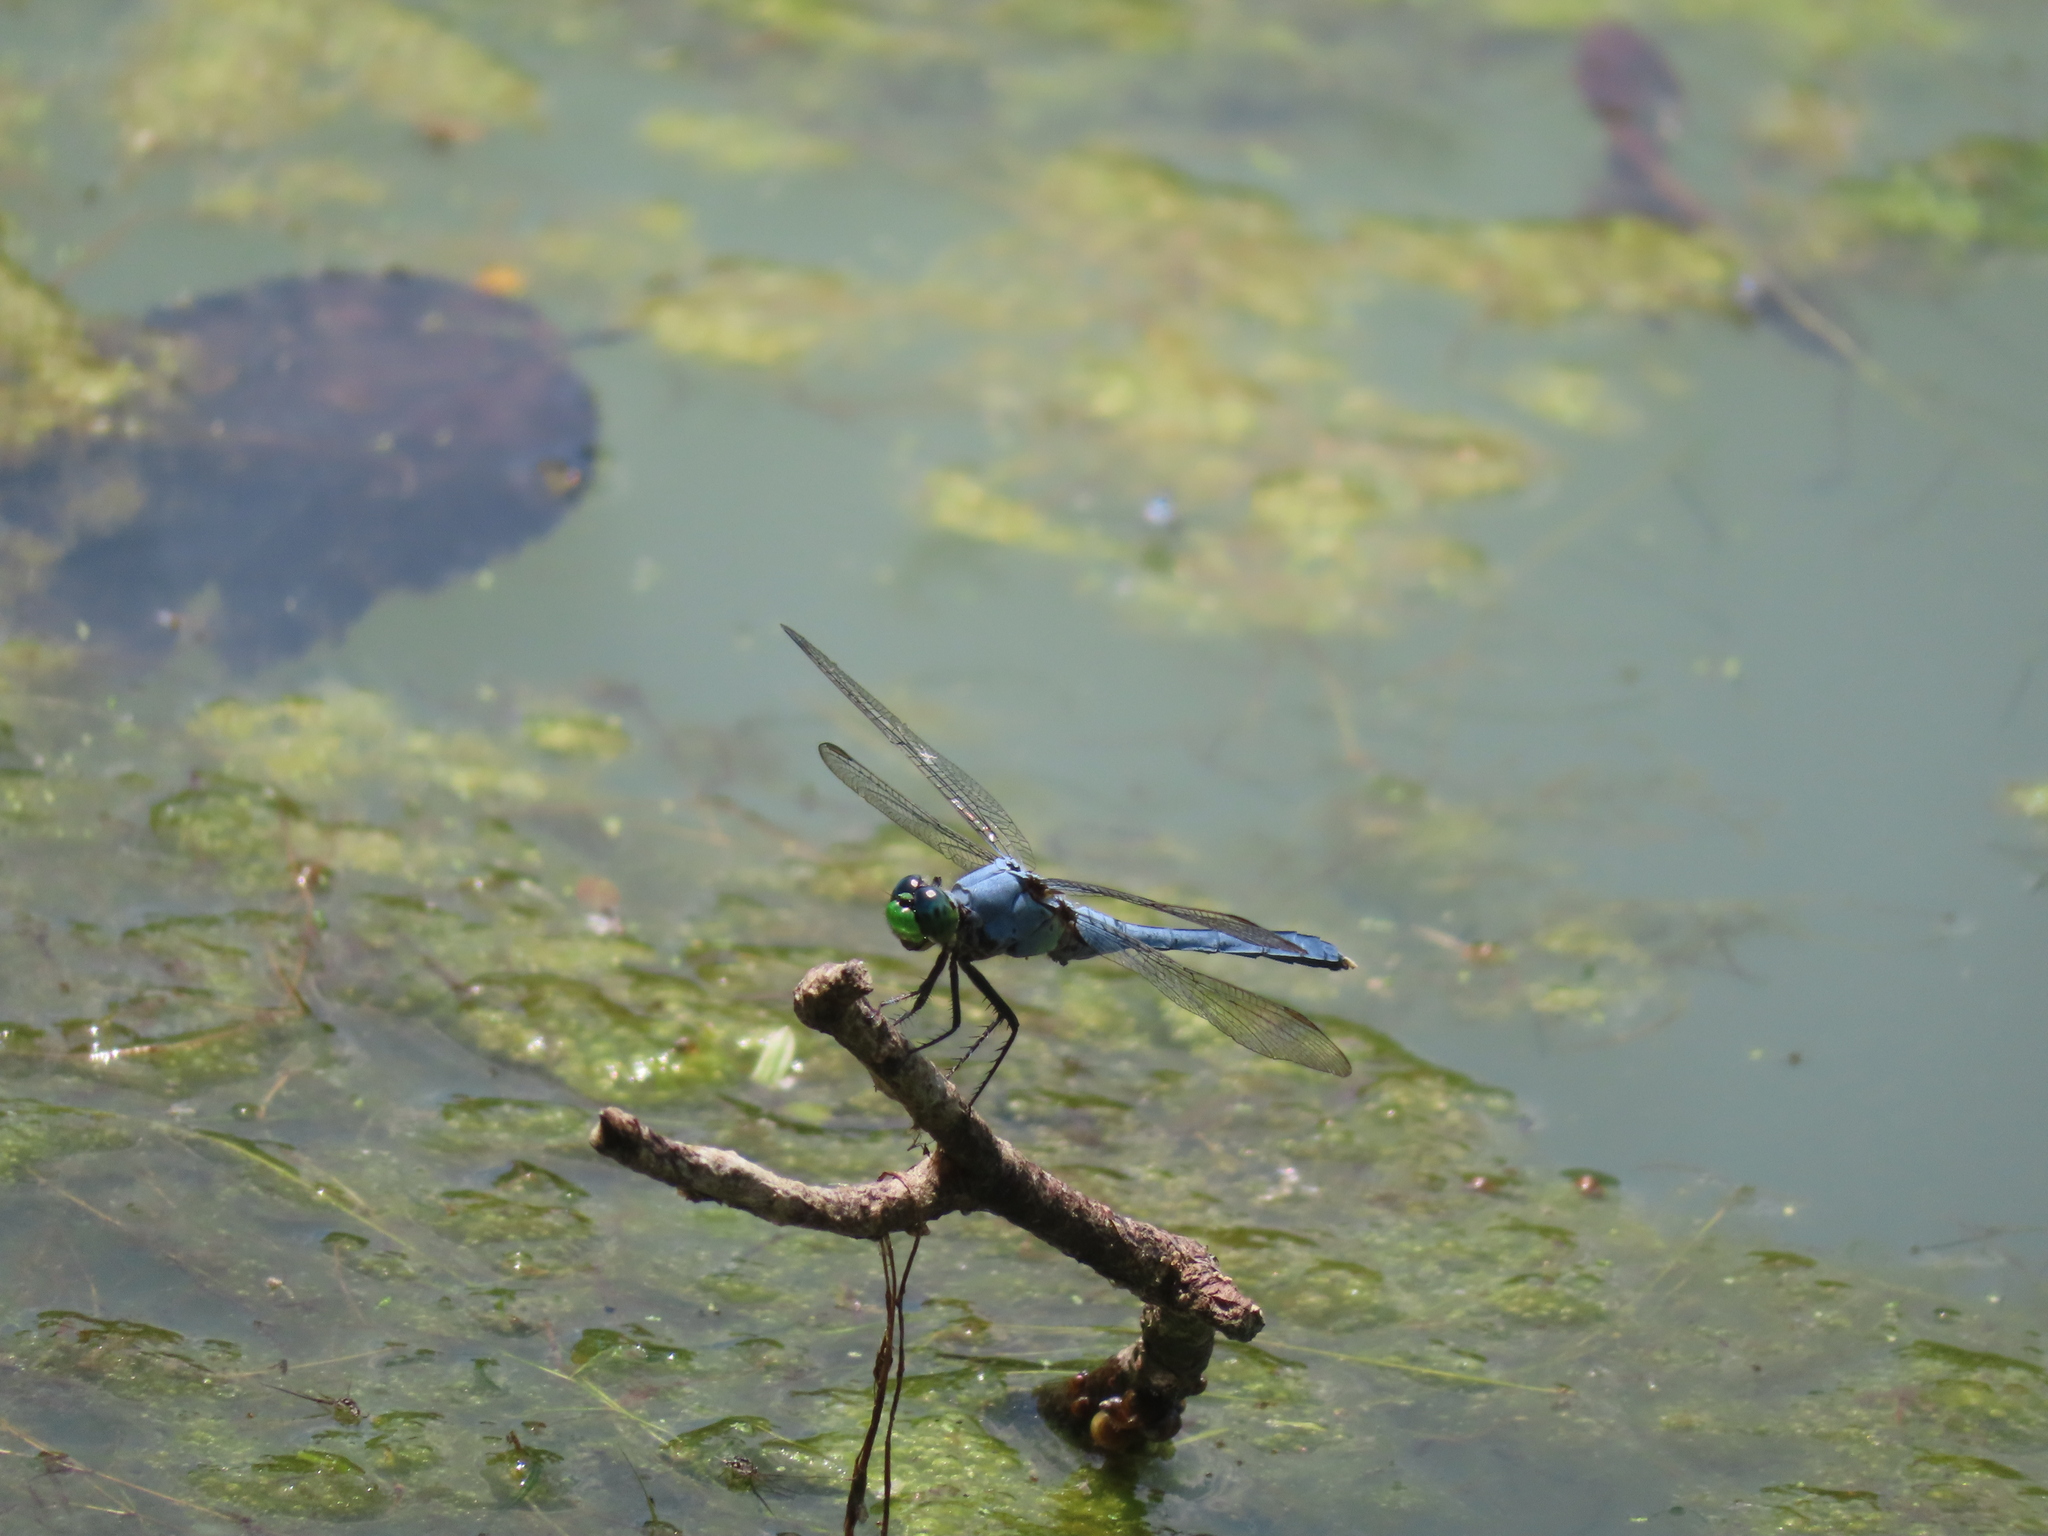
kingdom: Animalia
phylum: Arthropoda
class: Insecta
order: Odonata
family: Libellulidae
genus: Erythemis
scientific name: Erythemis simplicicollis
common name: Eastern pondhawk
